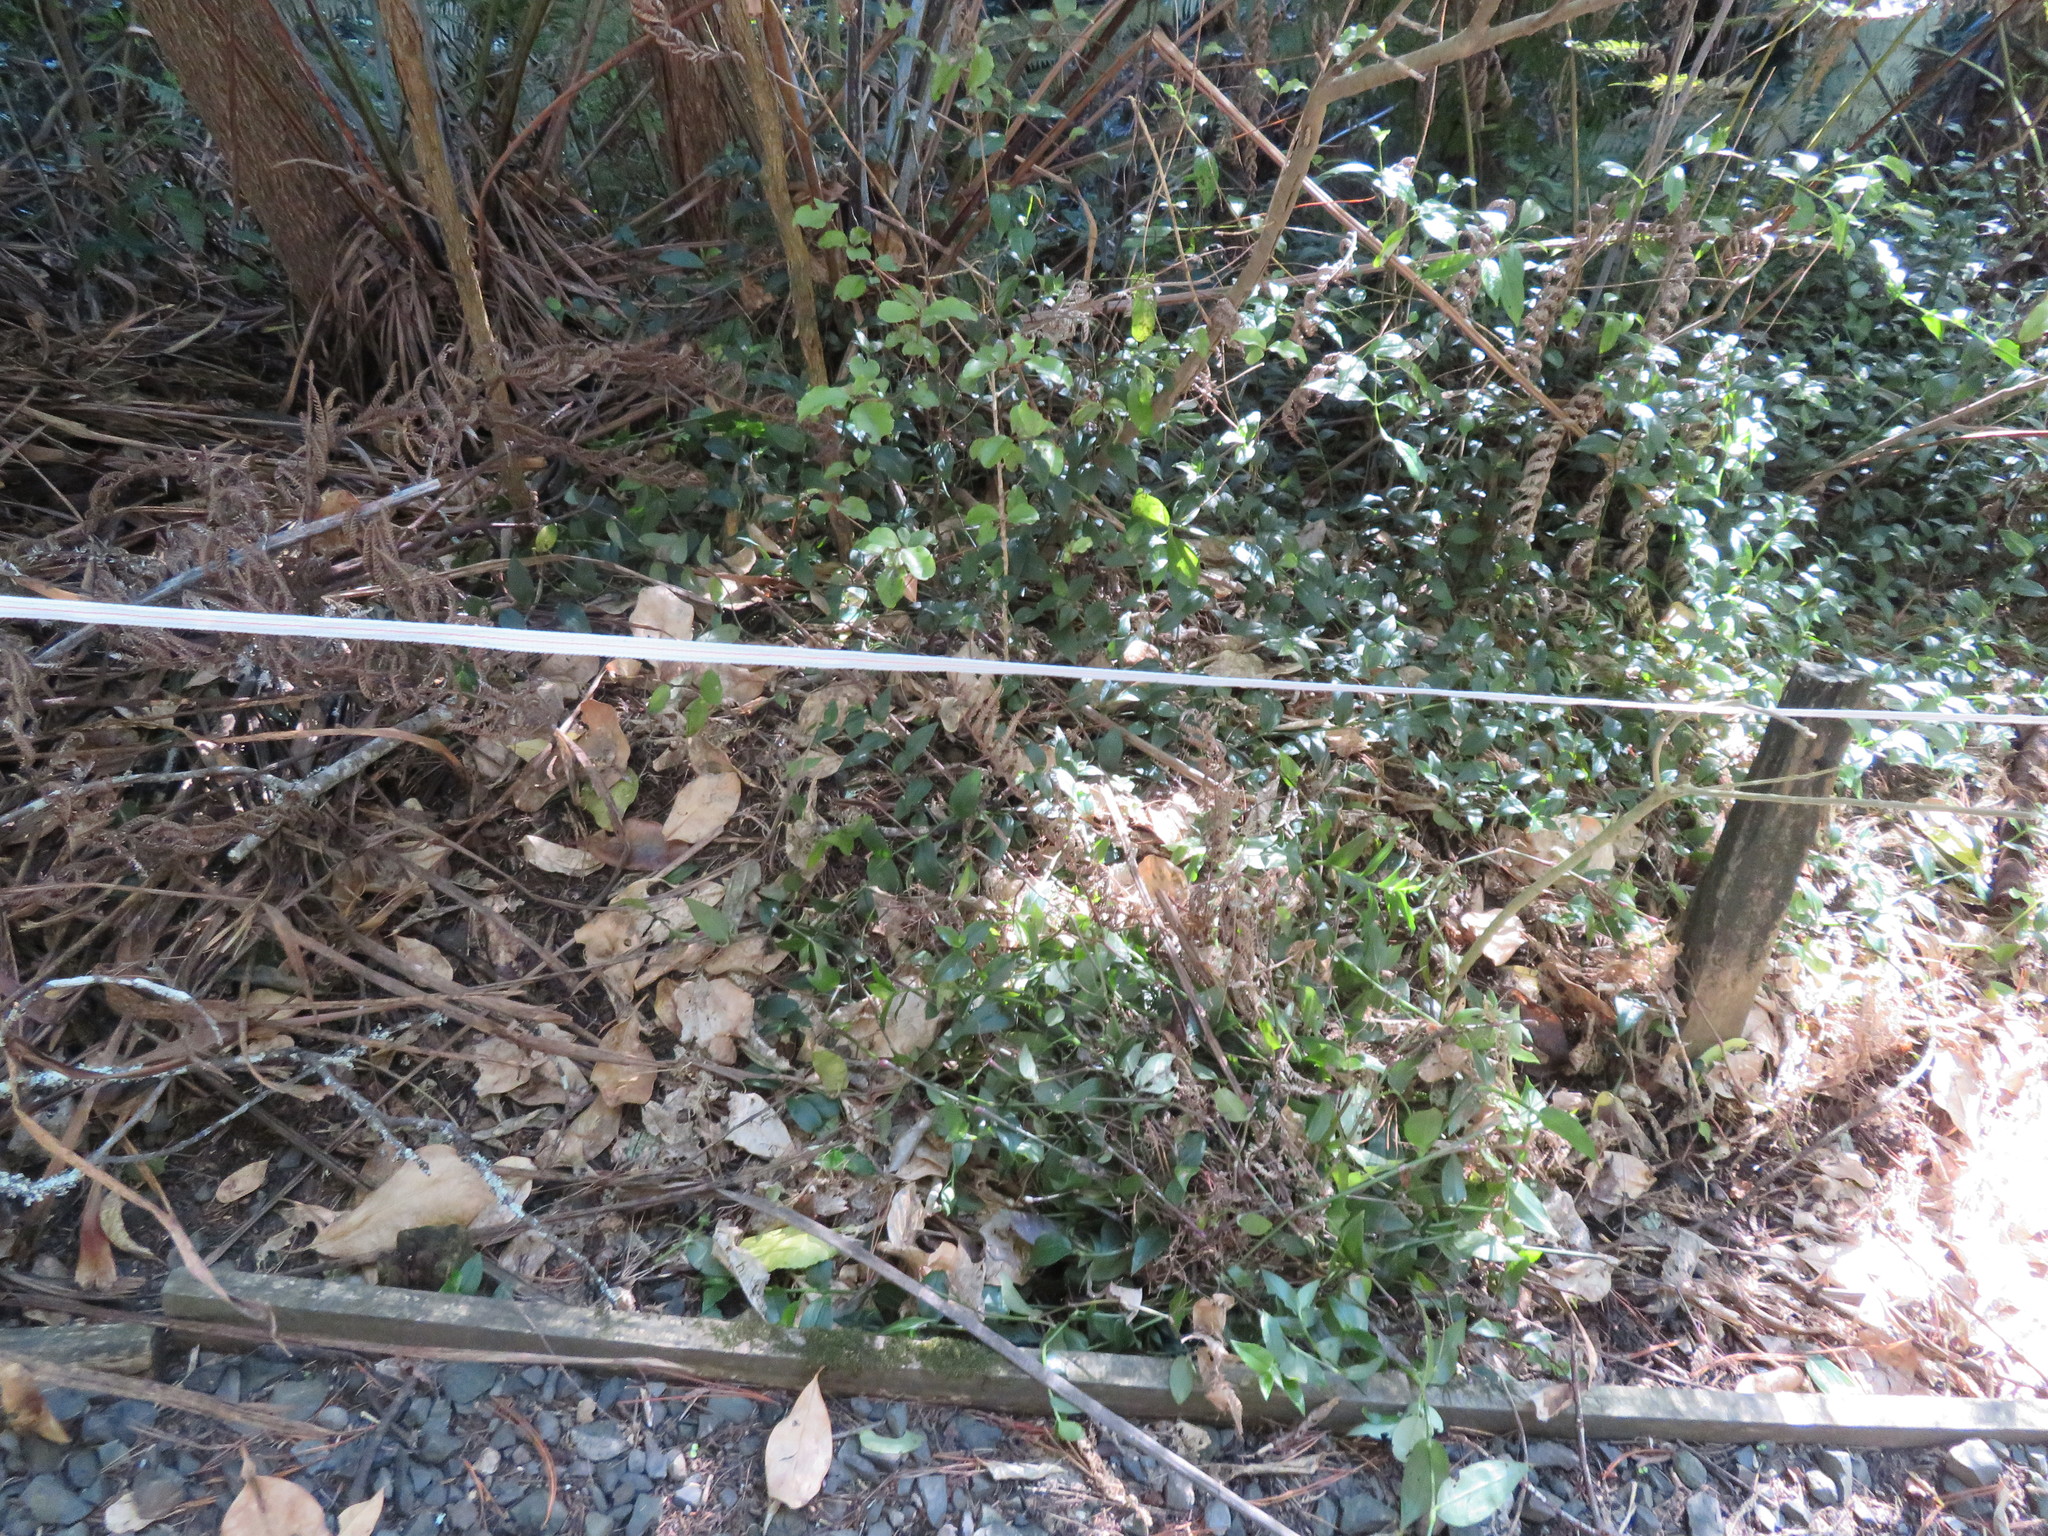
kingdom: Plantae
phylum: Tracheophyta
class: Liliopsida
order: Commelinales
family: Commelinaceae
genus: Tradescantia
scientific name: Tradescantia fluminensis
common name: Wandering-jew
